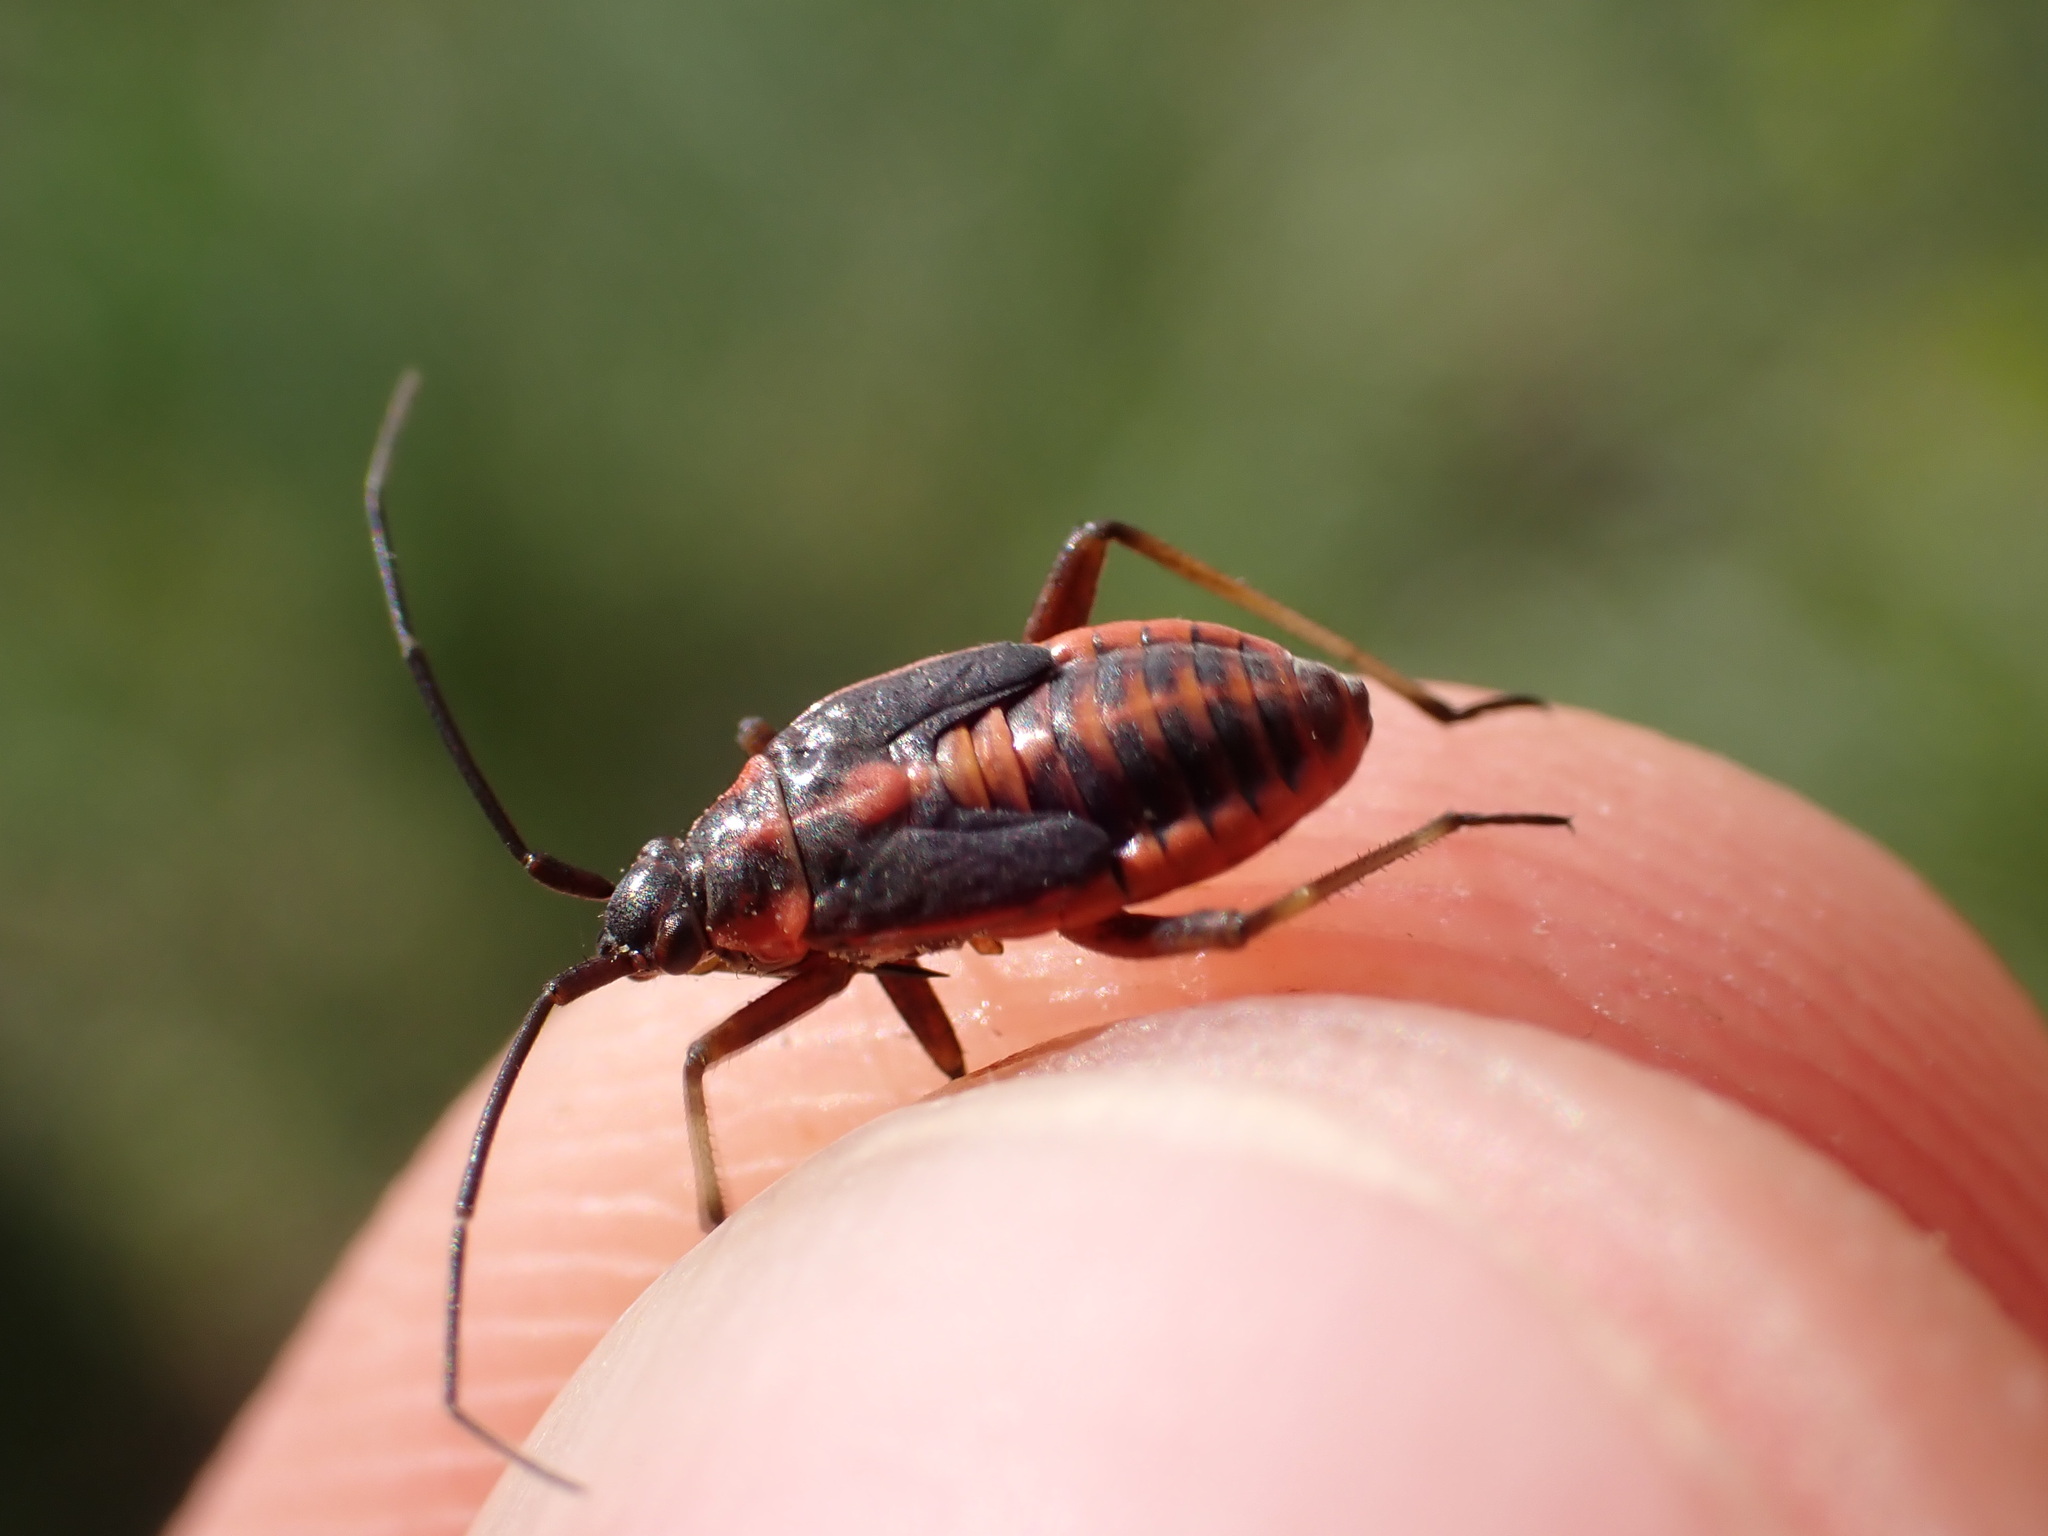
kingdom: Animalia
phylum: Arthropoda
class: Insecta
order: Hemiptera
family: Miridae
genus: Calocoris
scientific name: Calocoris nemoralis
